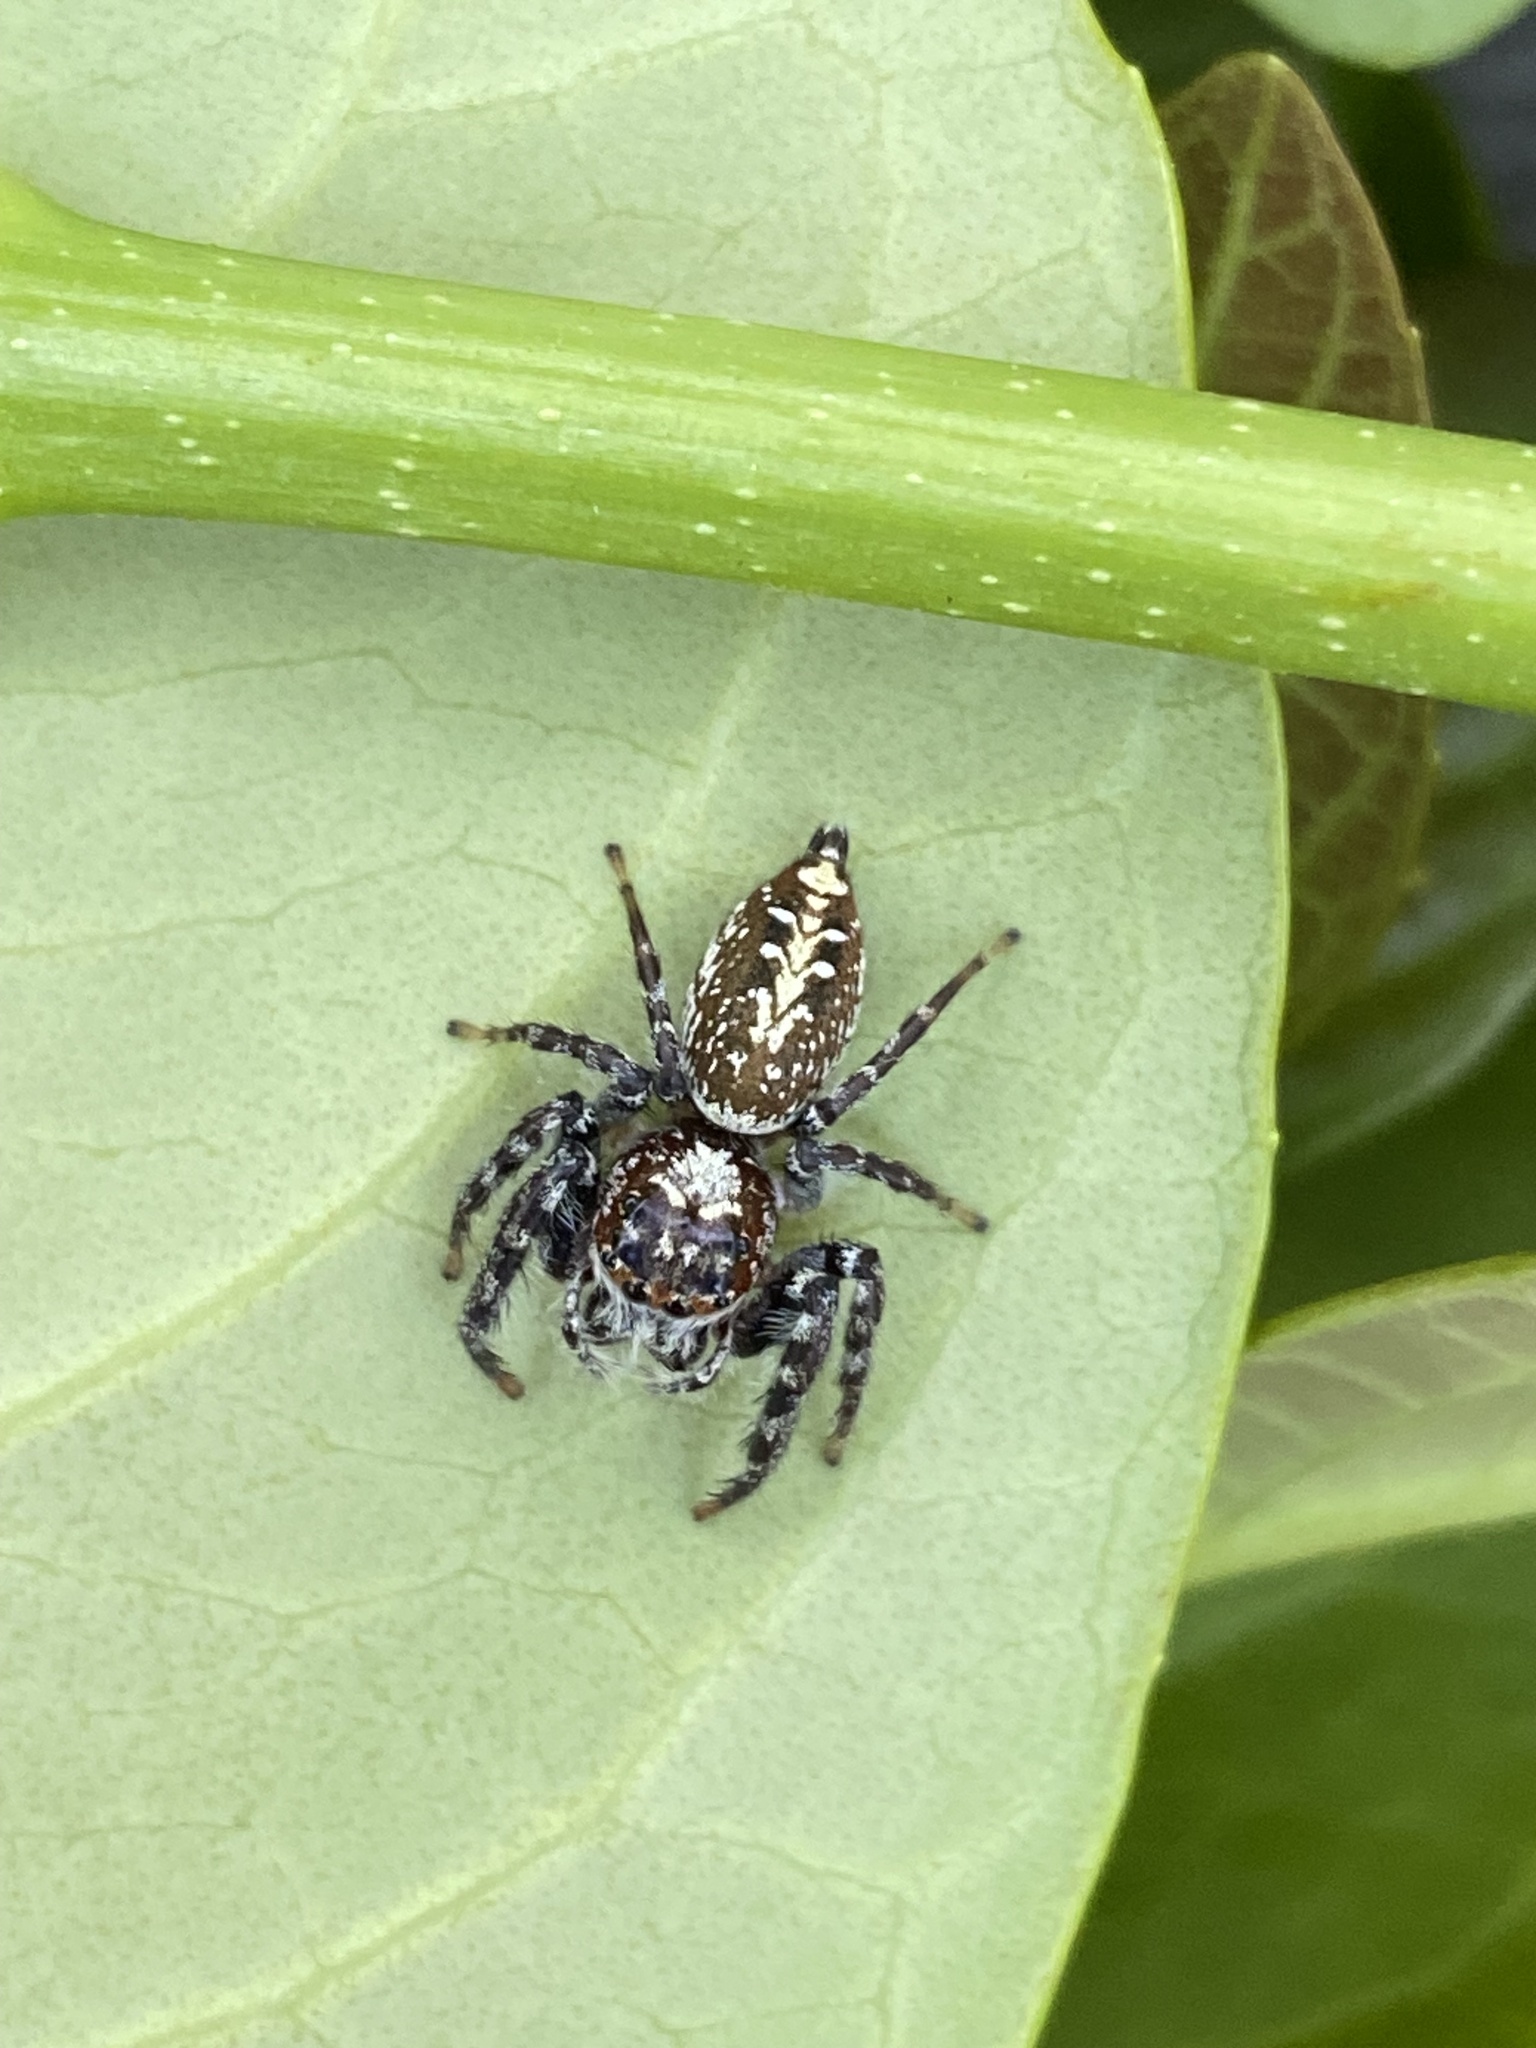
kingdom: Animalia
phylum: Arthropoda
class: Arachnida
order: Araneae
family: Salticidae
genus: Opisthoncus
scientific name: Opisthoncus quadratarius
